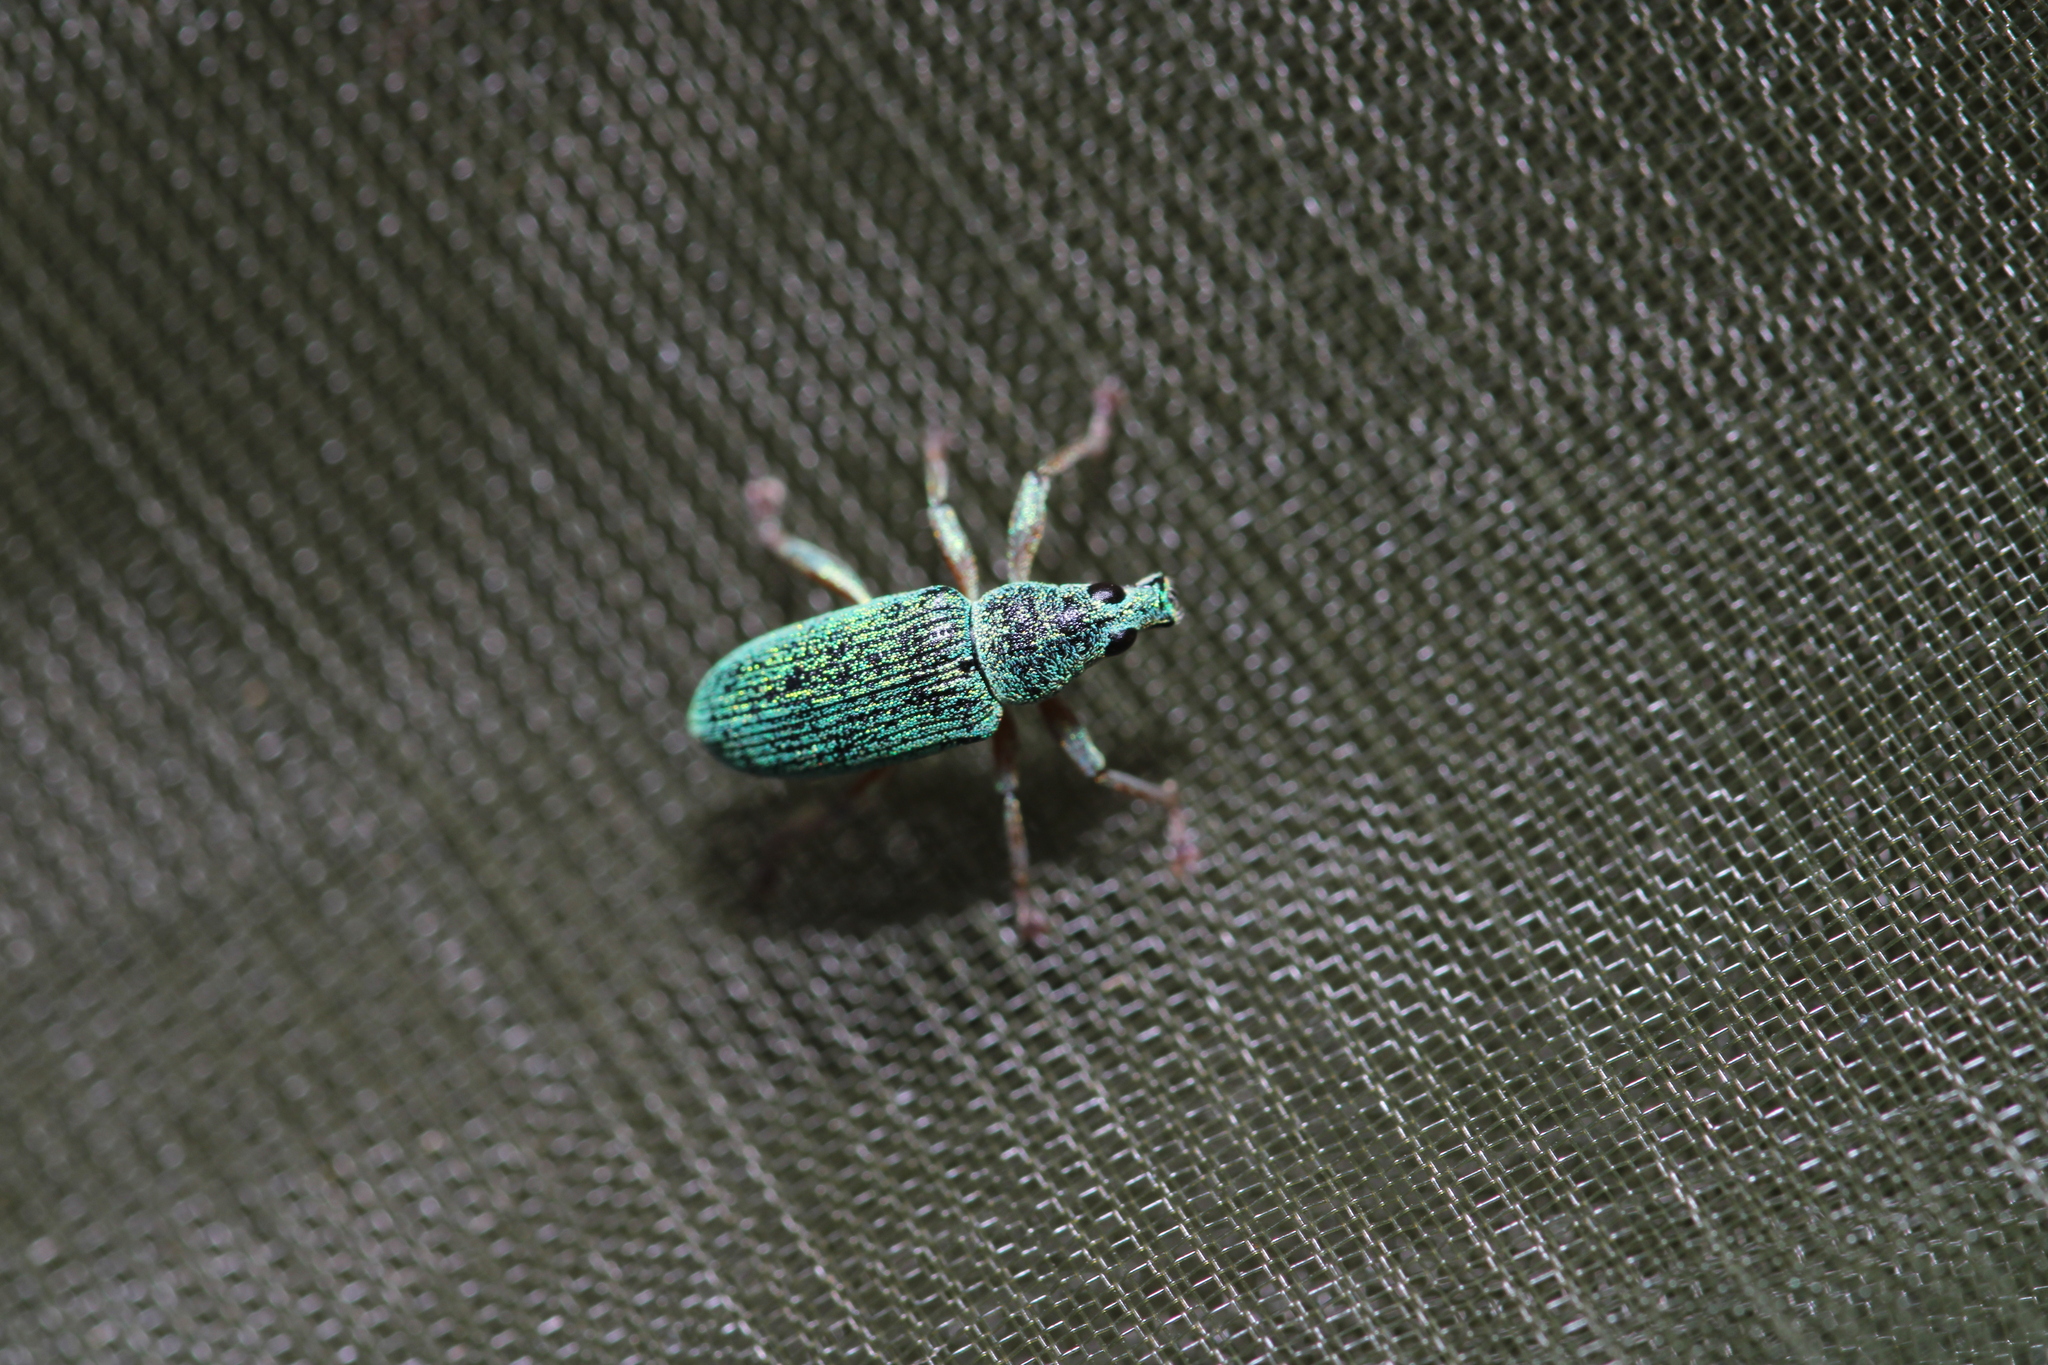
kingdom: Animalia
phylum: Arthropoda
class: Insecta
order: Coleoptera
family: Curculionidae
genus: Polydrusus
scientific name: Polydrusus formosus
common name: Weevil
